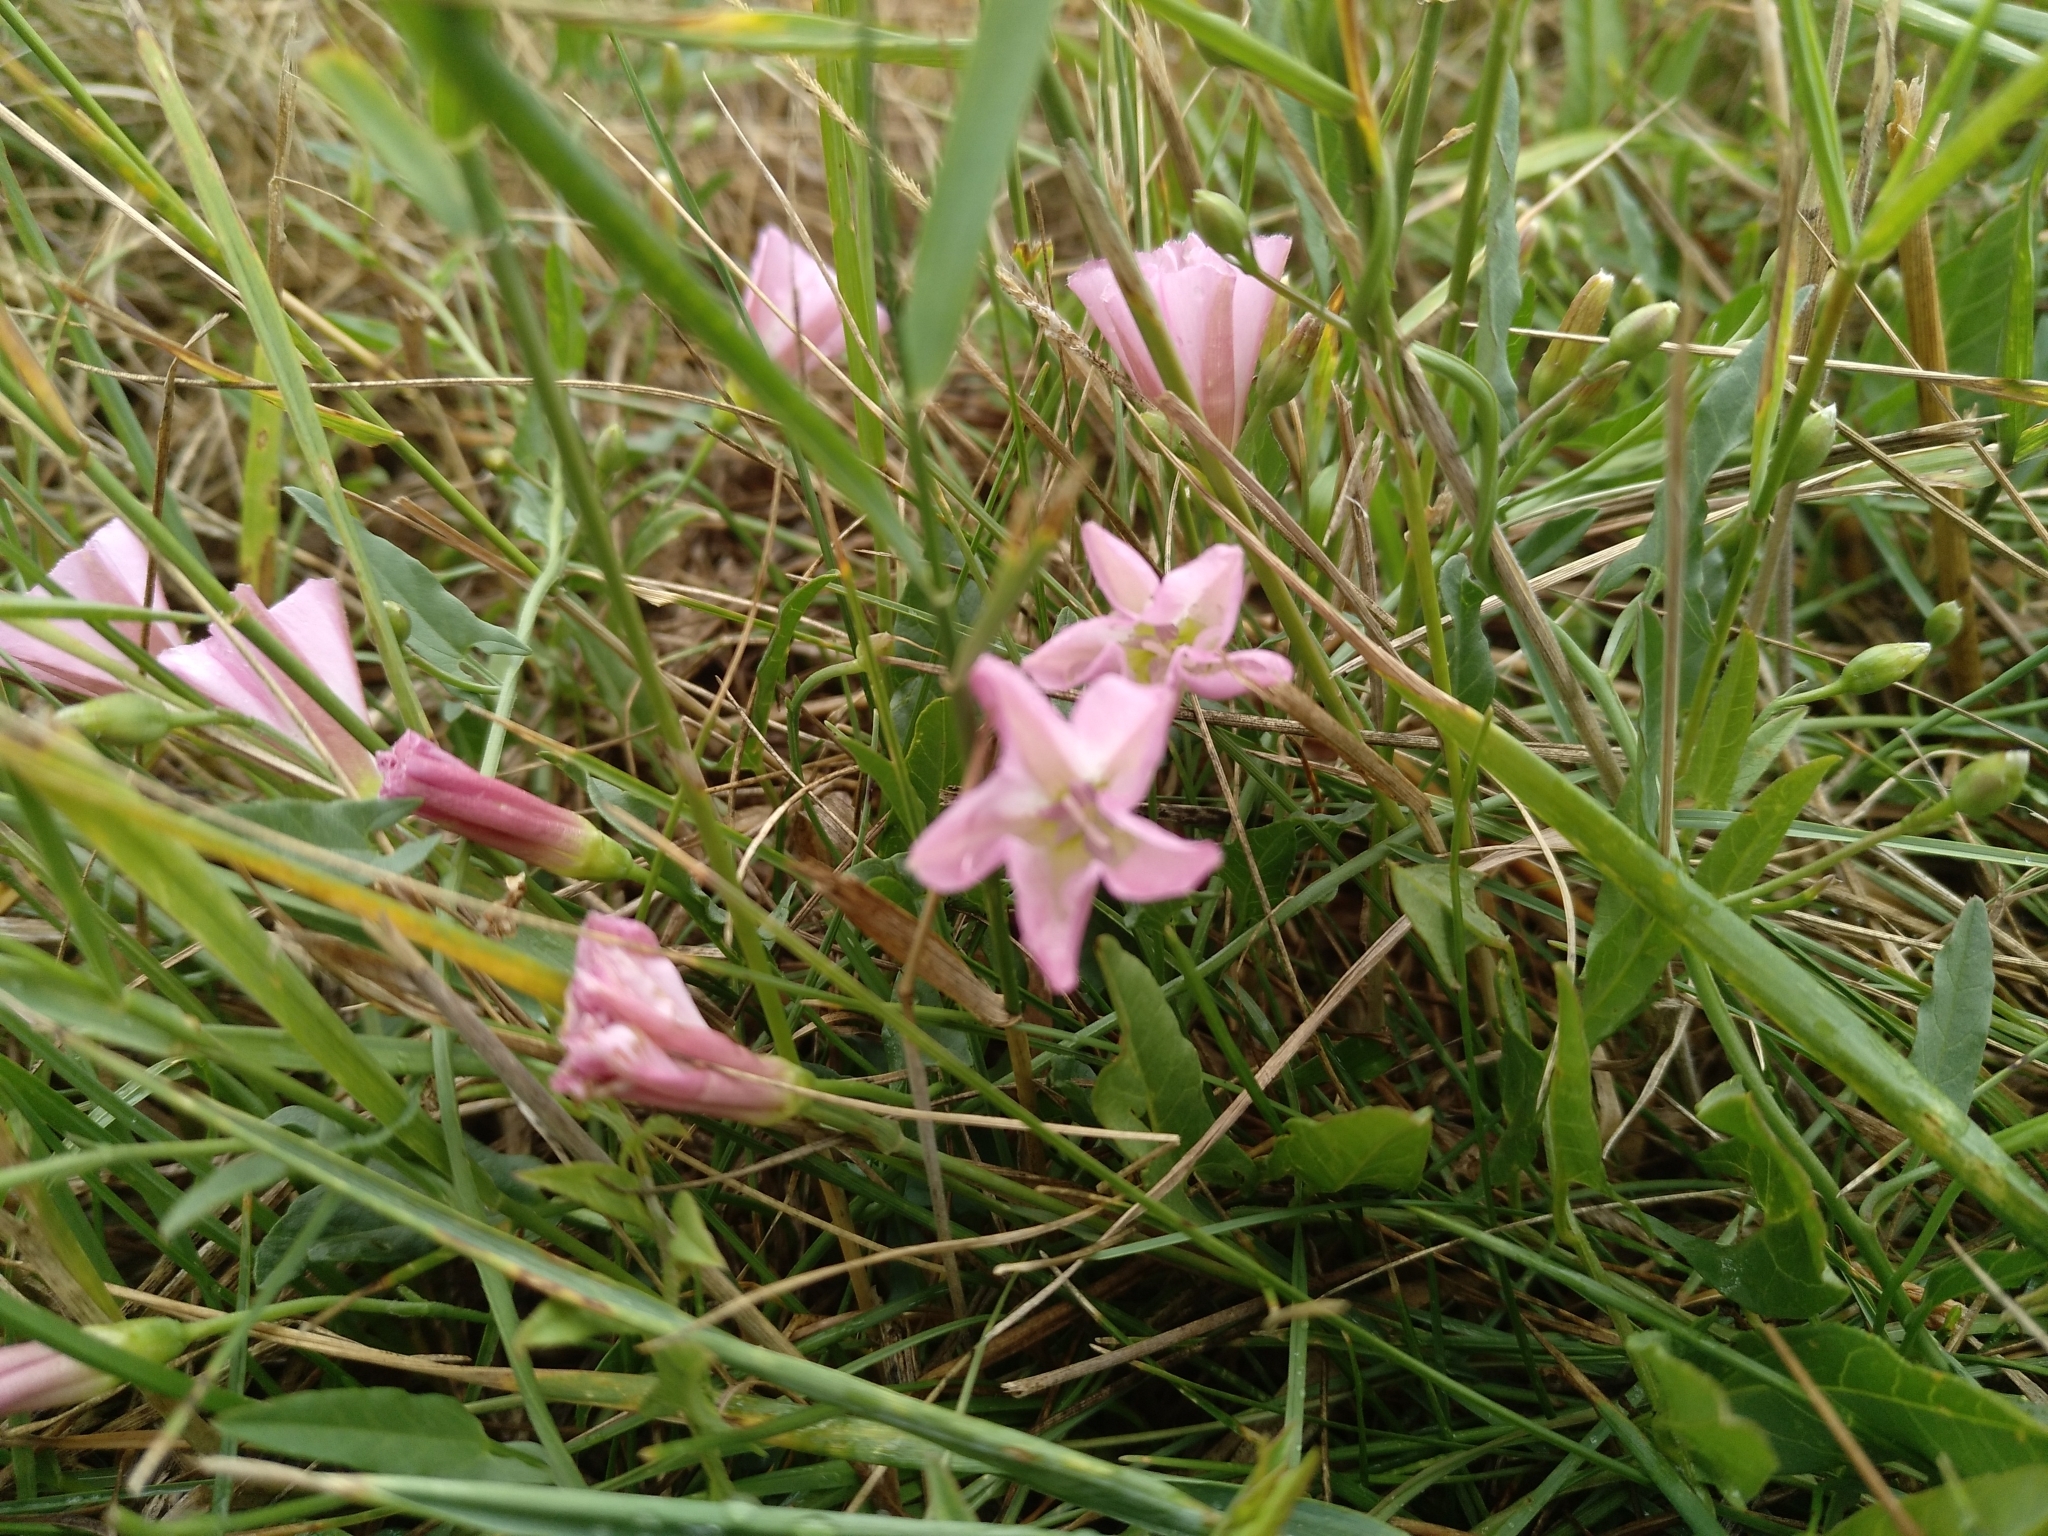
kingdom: Plantae
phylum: Tracheophyta
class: Magnoliopsida
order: Solanales
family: Convolvulaceae
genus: Convolvulus
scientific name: Convolvulus arvensis
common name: Field bindweed
